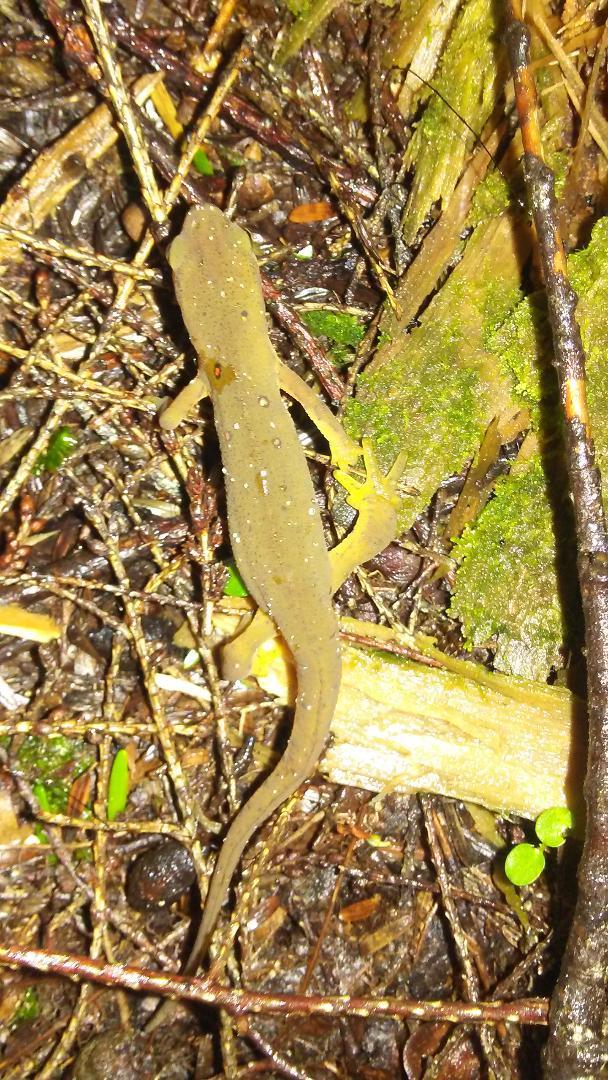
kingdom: Animalia
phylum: Chordata
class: Amphibia
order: Caudata
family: Salamandridae
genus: Notophthalmus
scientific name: Notophthalmus viridescens
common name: Eastern newt
